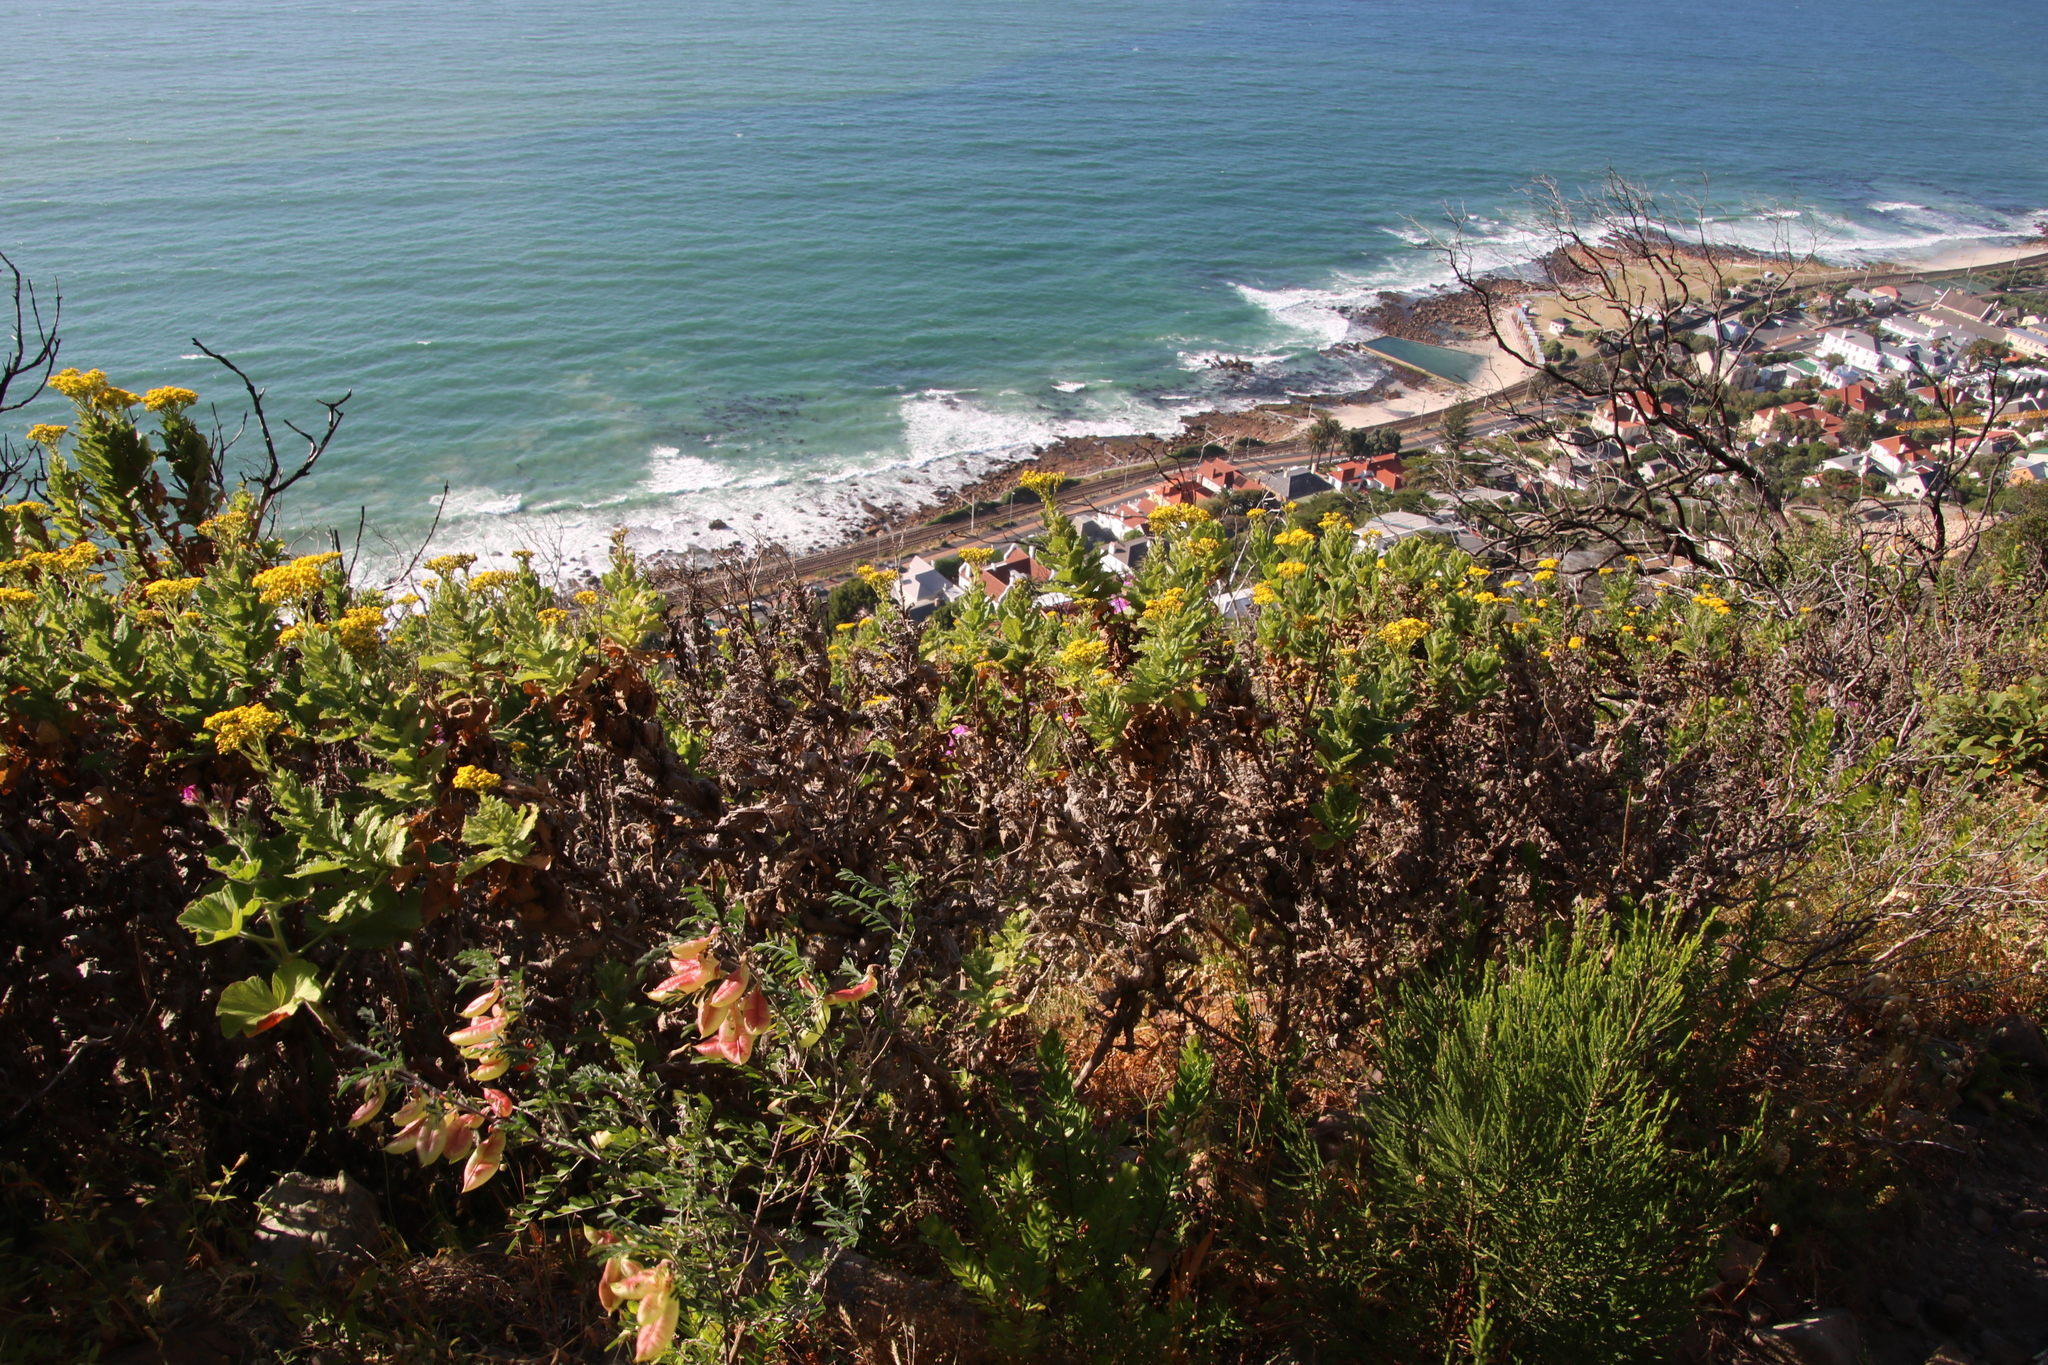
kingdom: Plantae
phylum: Tracheophyta
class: Magnoliopsida
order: Asterales
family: Asteraceae
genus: Senecio
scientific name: Senecio rigidus
